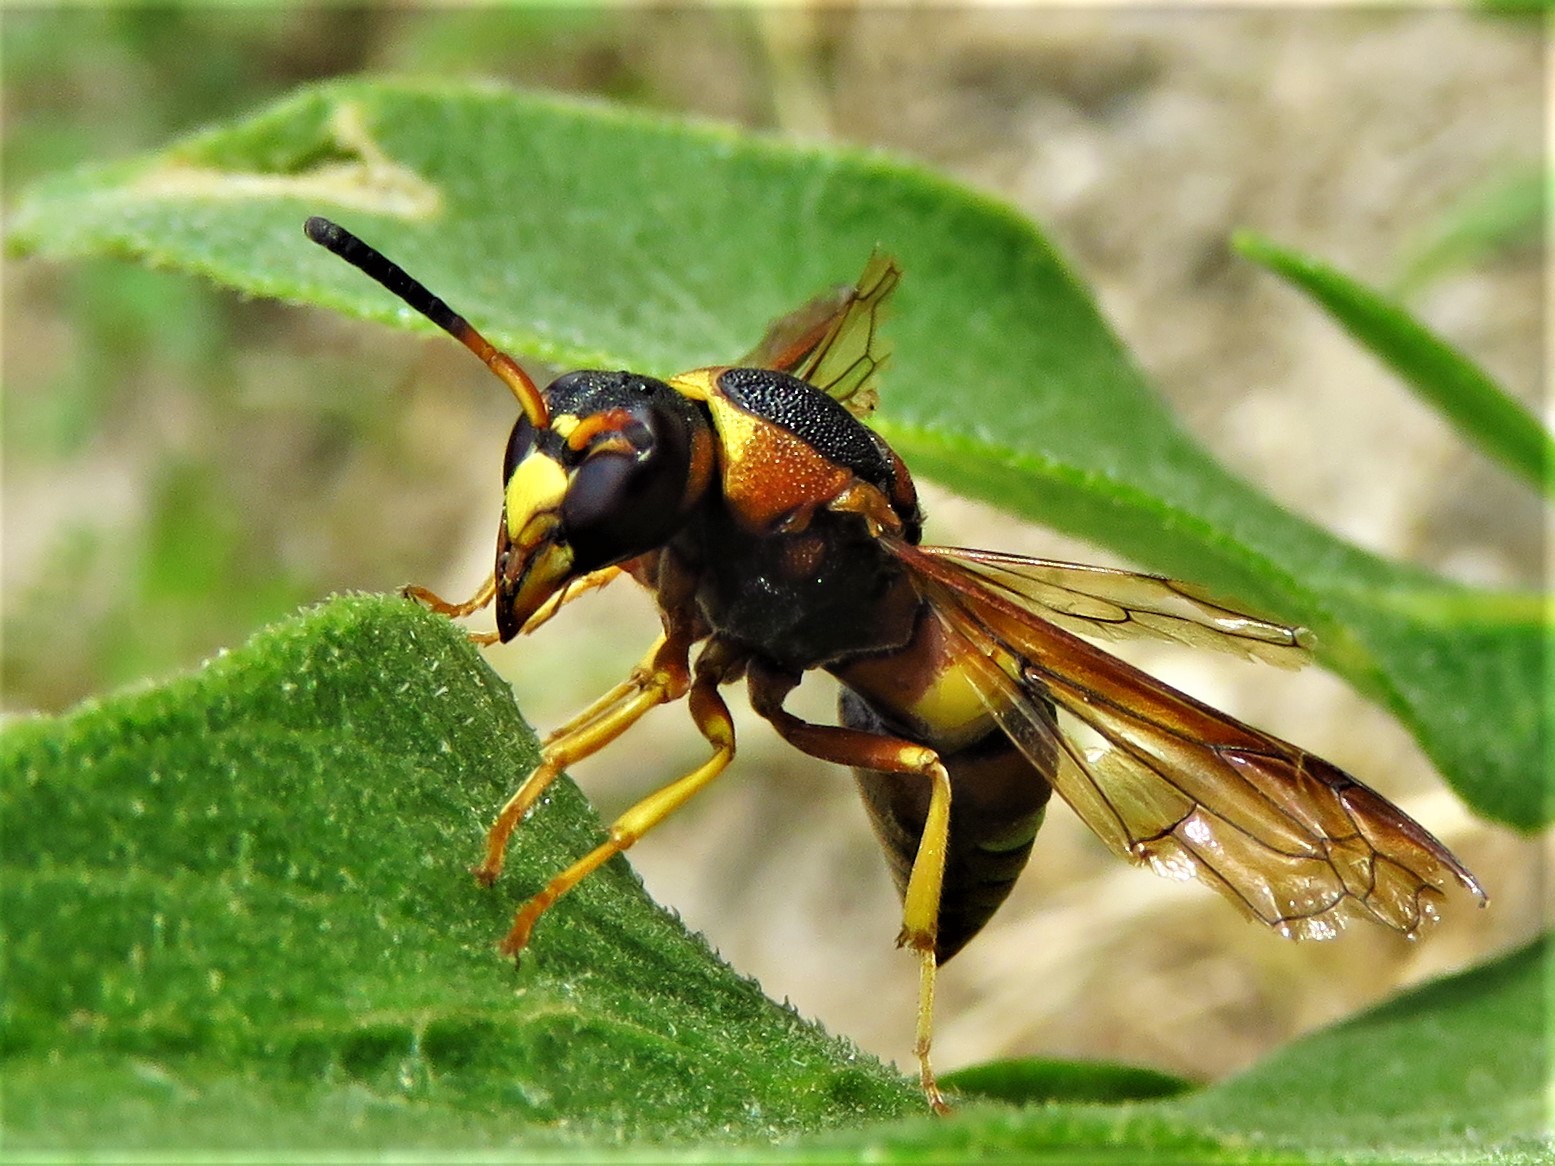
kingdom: Animalia
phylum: Arthropoda
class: Insecta
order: Hymenoptera
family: Eumenidae
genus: Euodynerus
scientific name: Euodynerus crypticus
